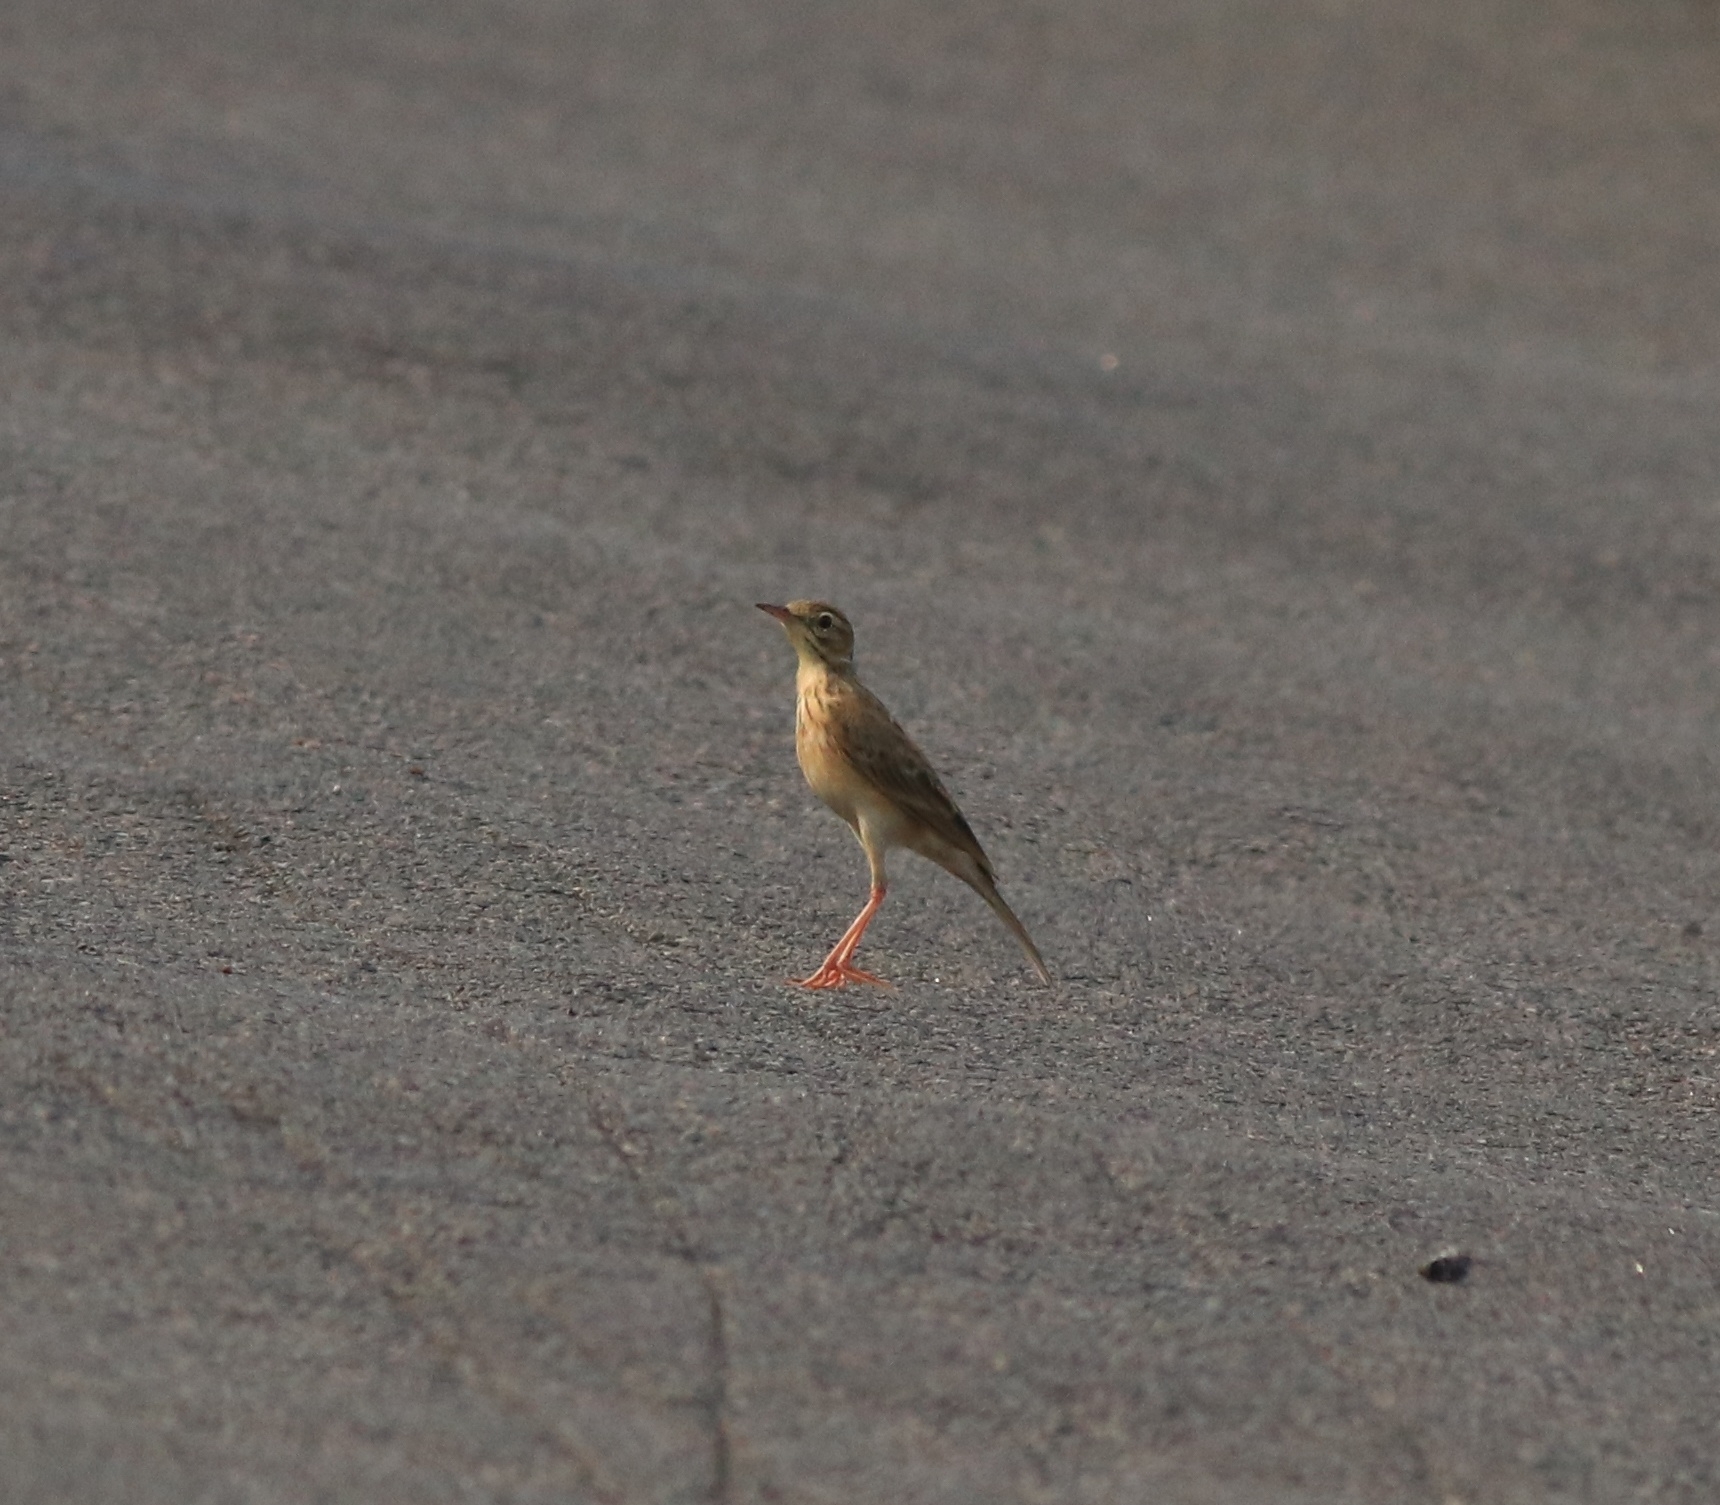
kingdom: Animalia
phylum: Chordata
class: Aves
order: Passeriformes
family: Motacillidae
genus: Anthus
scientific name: Anthus rufulus
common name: Paddyfield pipit
